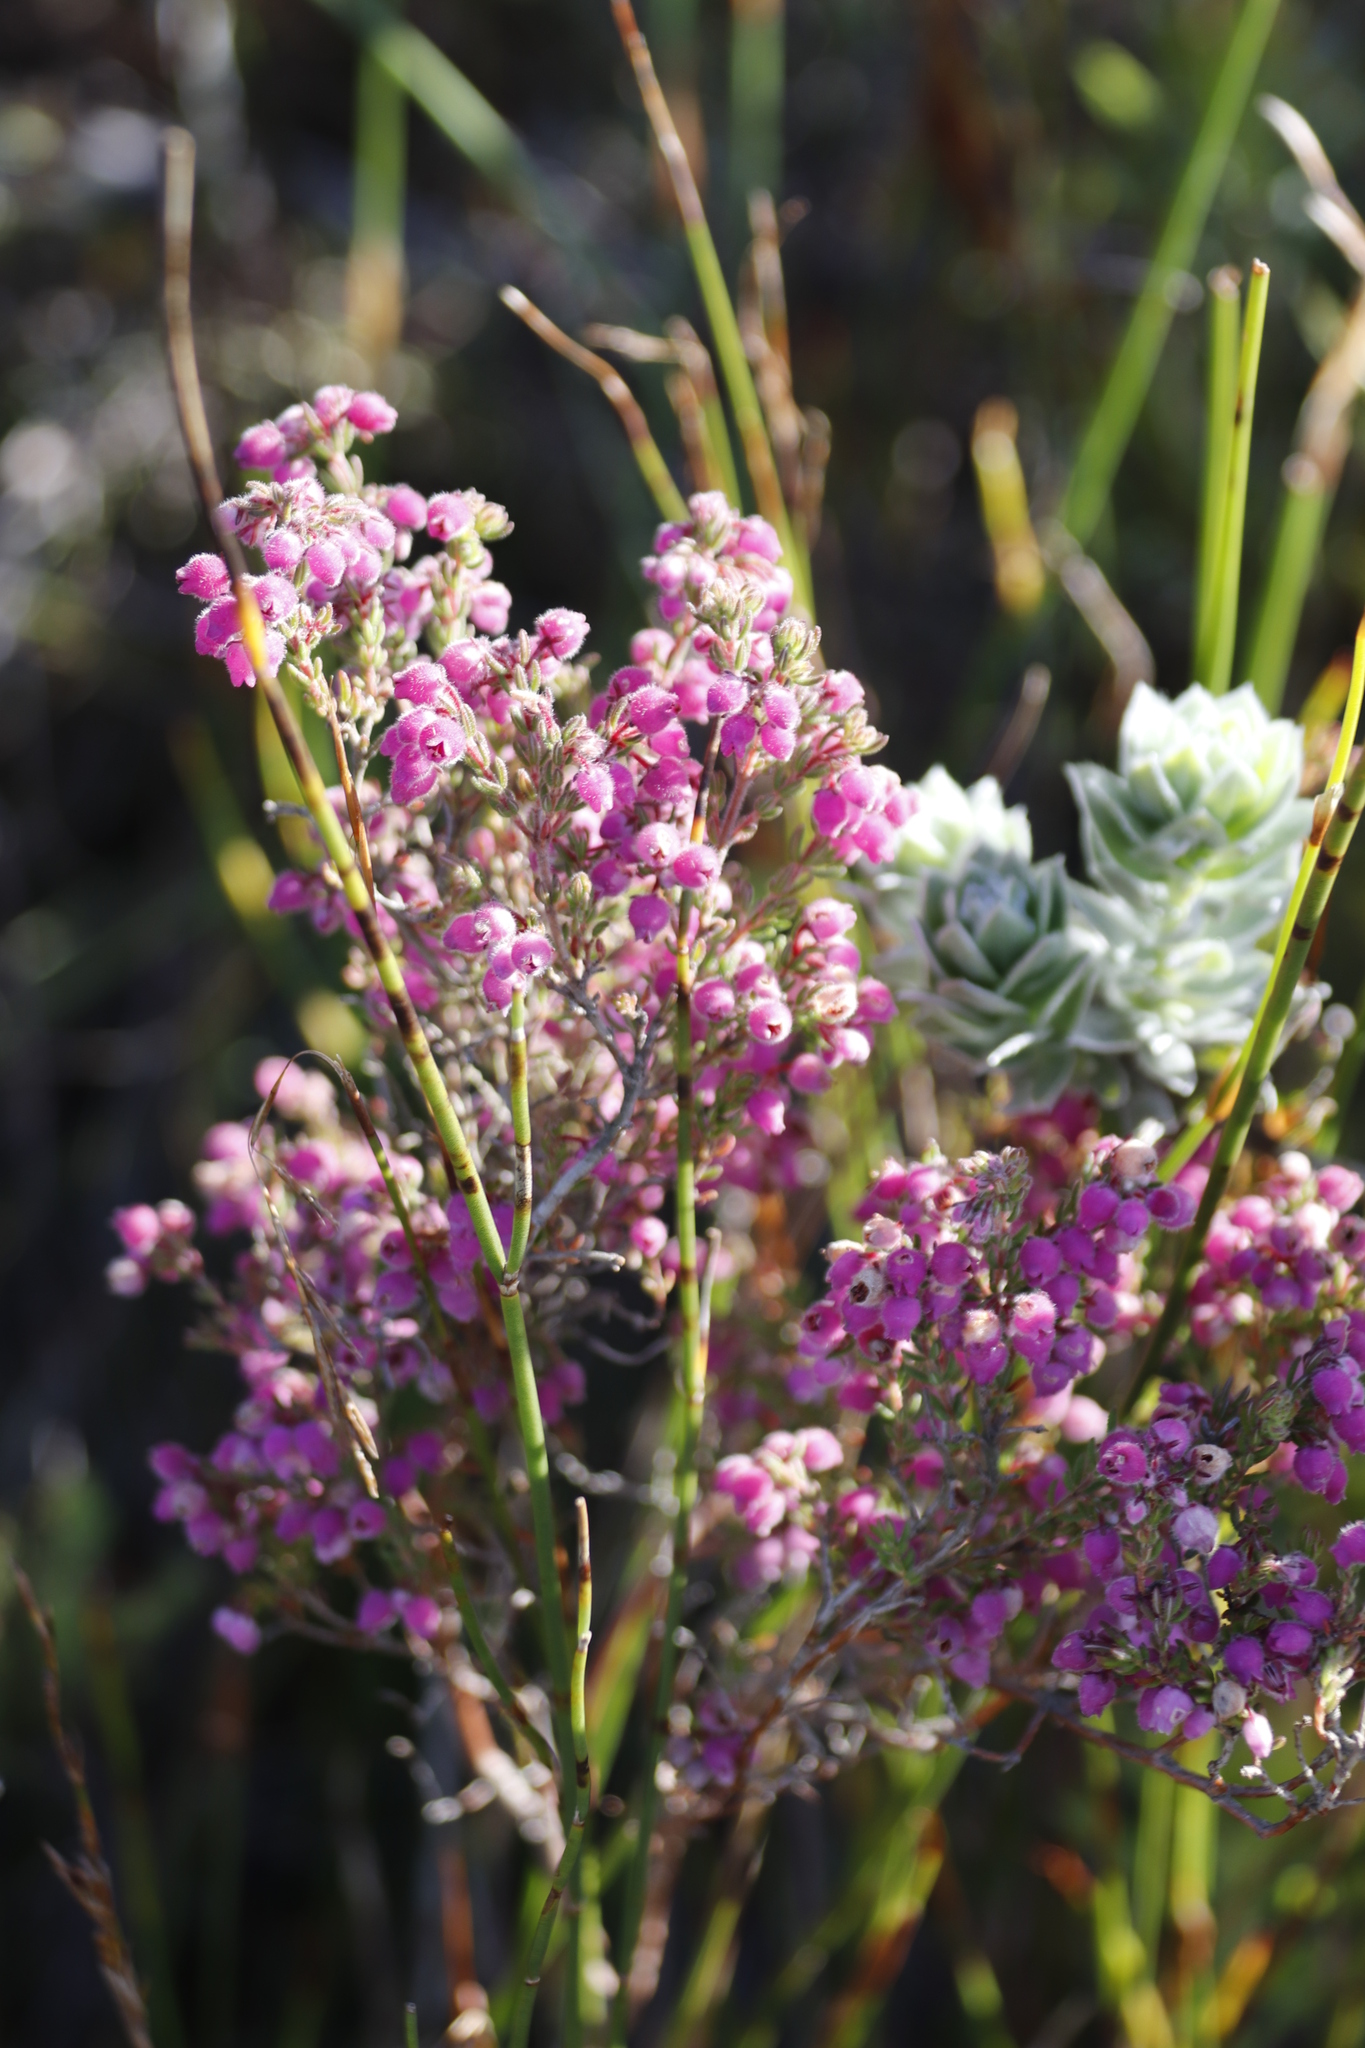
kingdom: Plantae
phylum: Tracheophyta
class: Magnoliopsida
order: Ericales
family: Ericaceae
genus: Erica
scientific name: Erica hirtiflora
